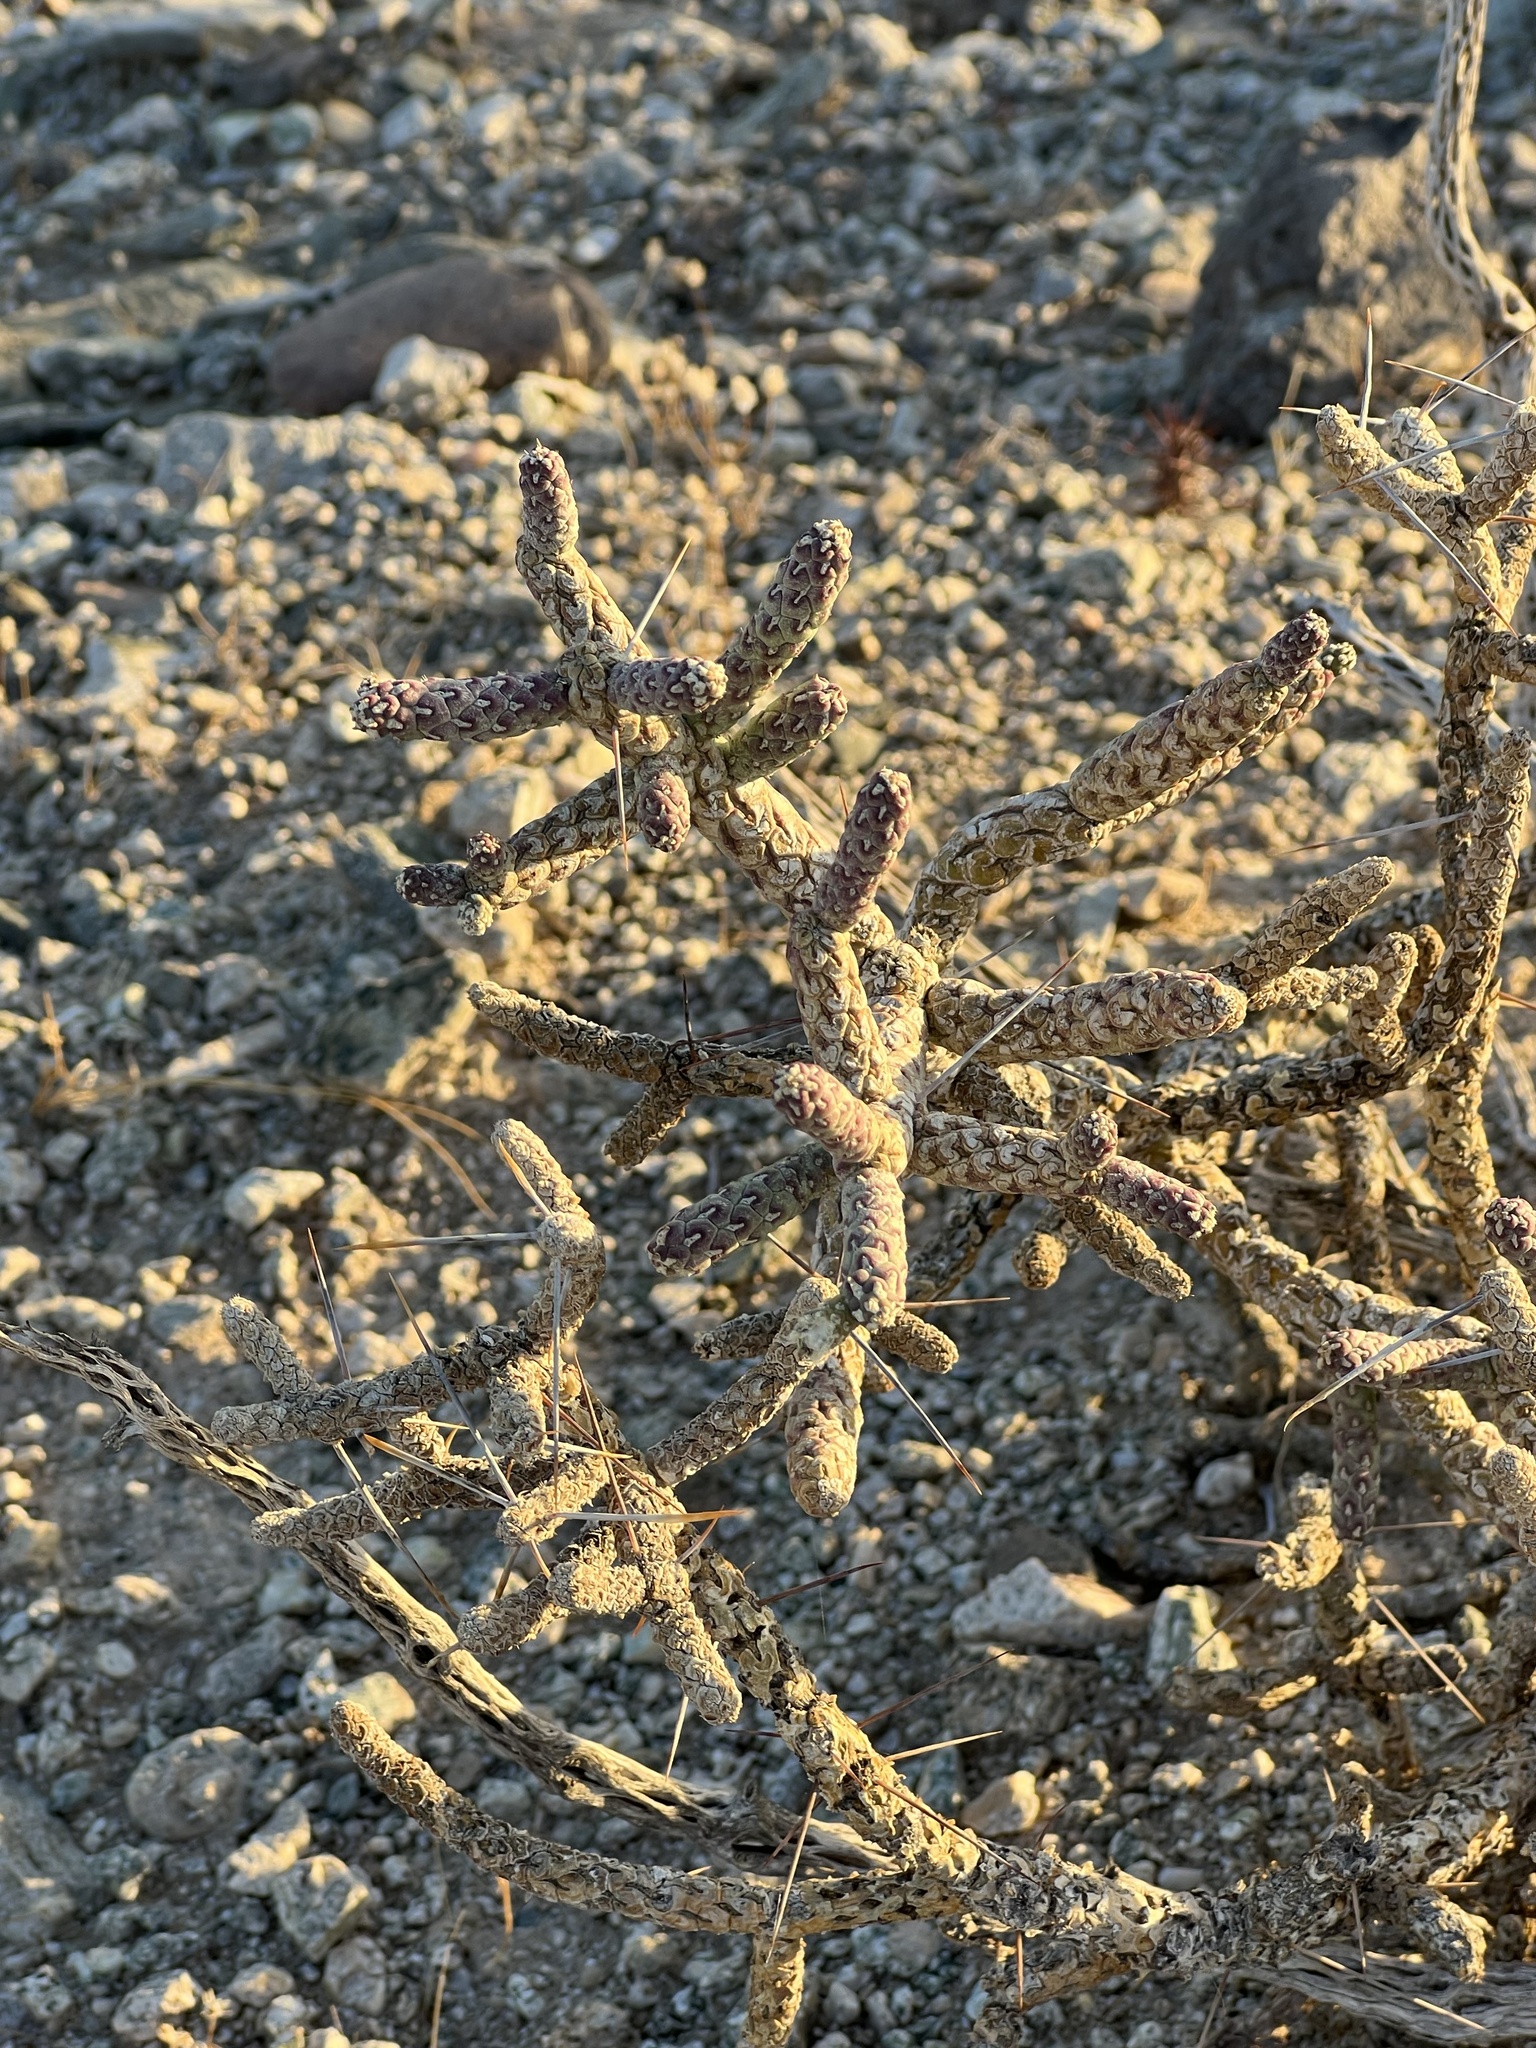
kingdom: Plantae
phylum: Tracheophyta
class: Magnoliopsida
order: Caryophyllales
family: Cactaceae
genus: Cylindropuntia
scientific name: Cylindropuntia ramosissima
